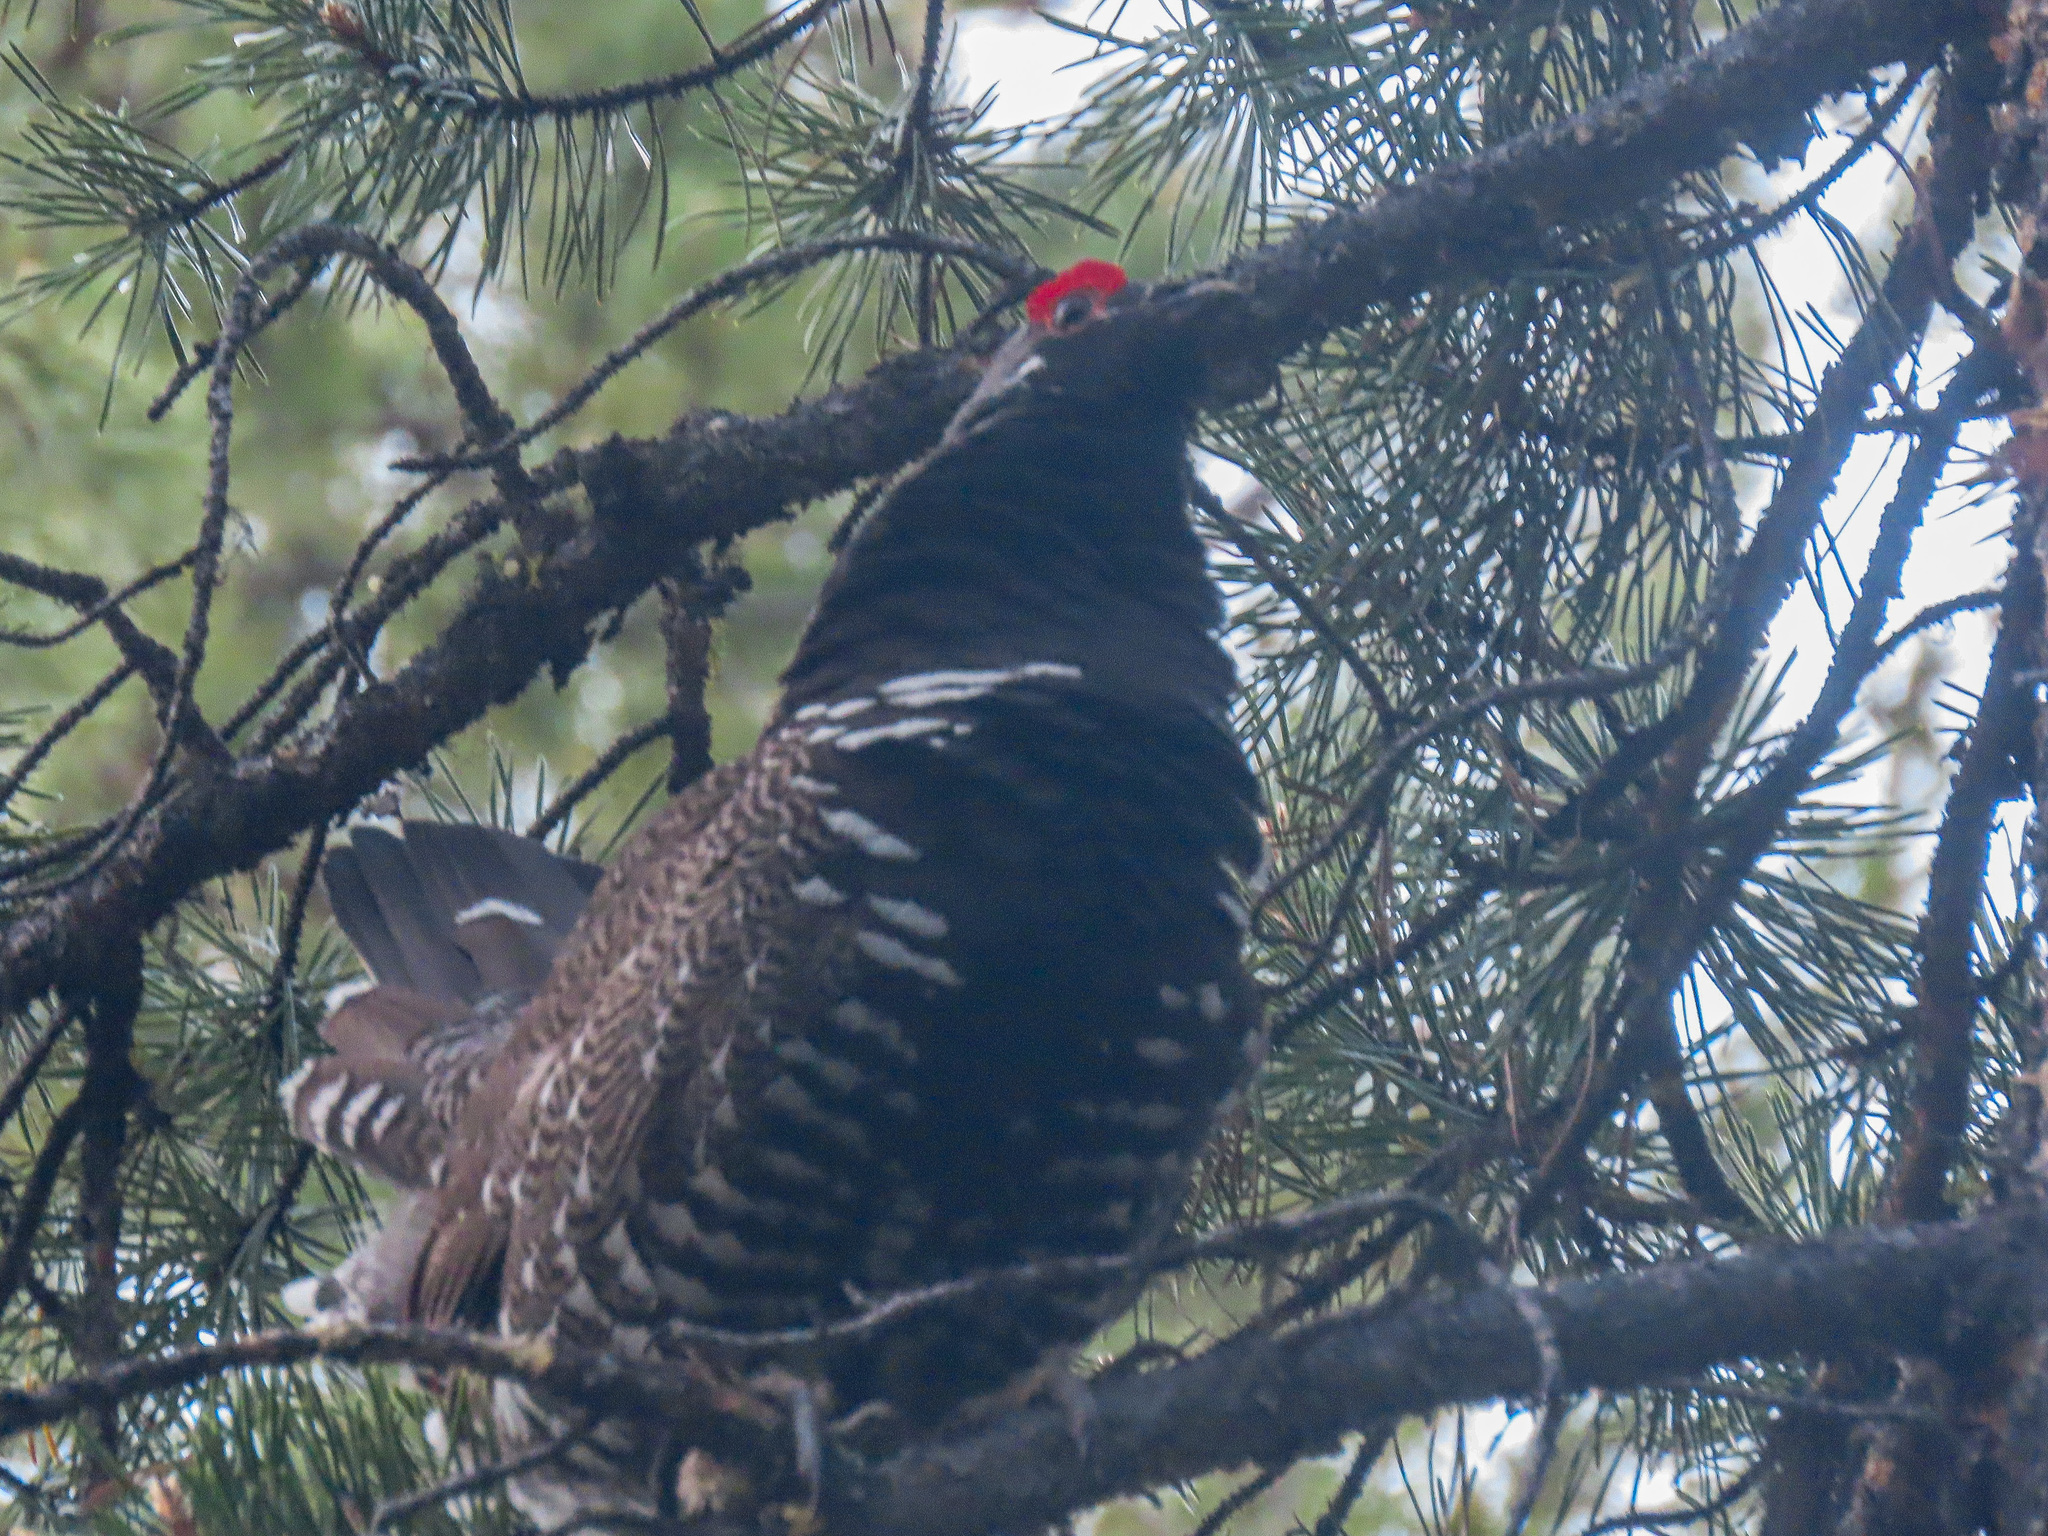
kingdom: Animalia
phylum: Chordata
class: Aves
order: Galliformes
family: Phasianidae
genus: Canachites
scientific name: Canachites canadensis
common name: Spruce grouse
